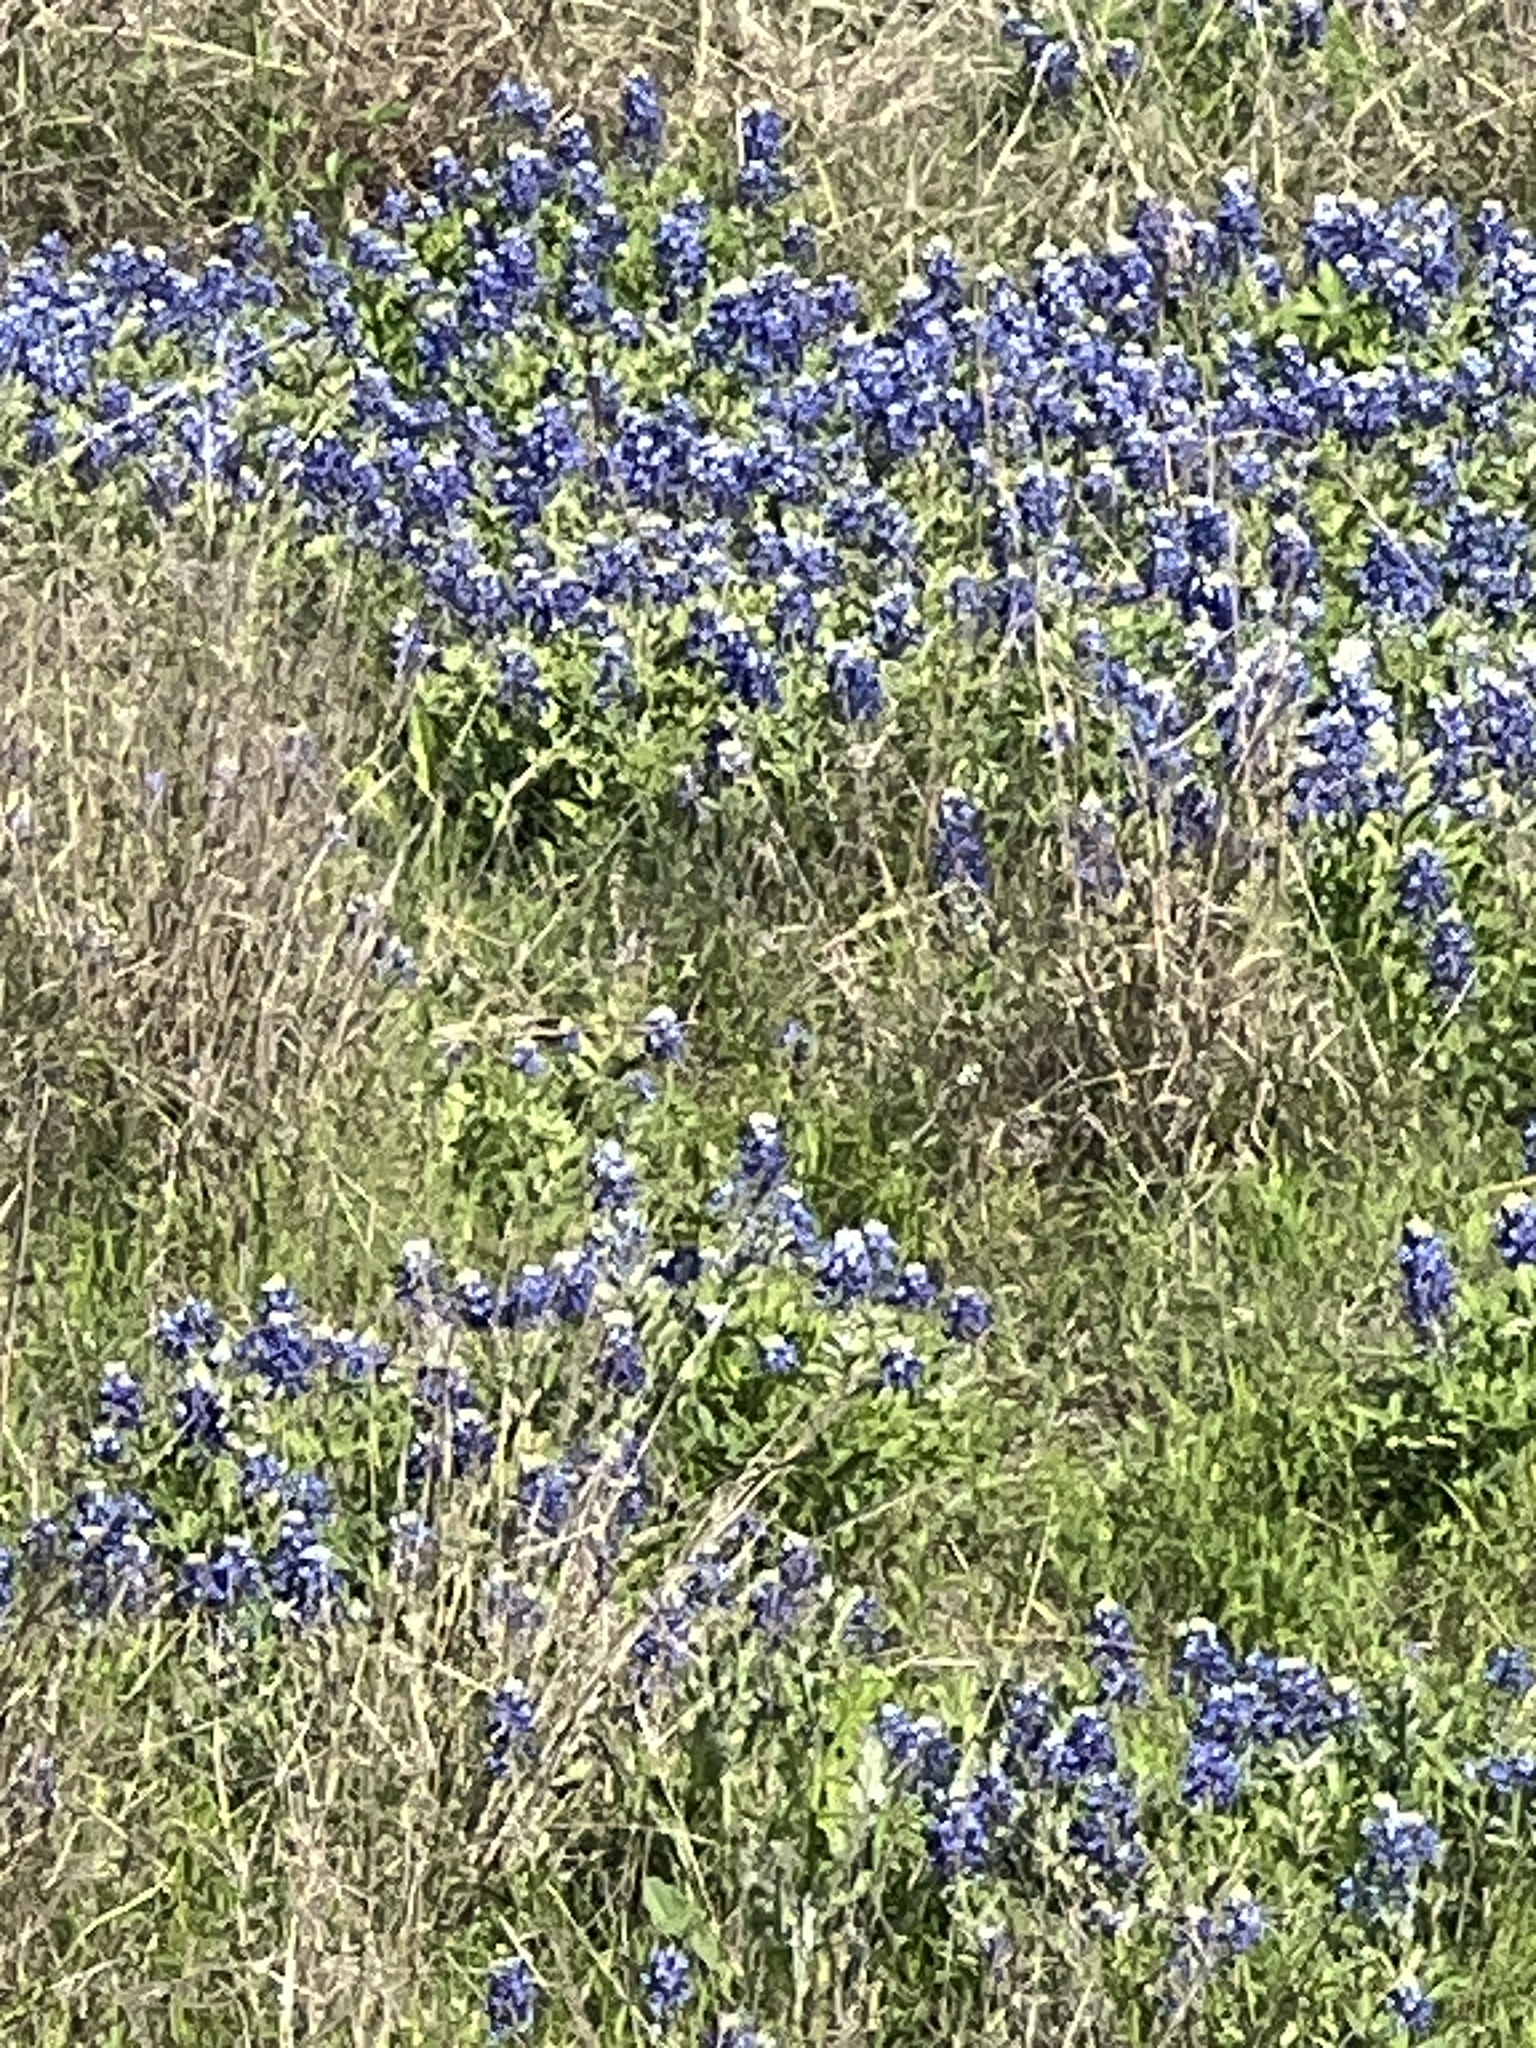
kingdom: Plantae
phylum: Tracheophyta
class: Magnoliopsida
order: Fabales
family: Fabaceae
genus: Lupinus
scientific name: Lupinus texensis
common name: Texas bluebonnet
